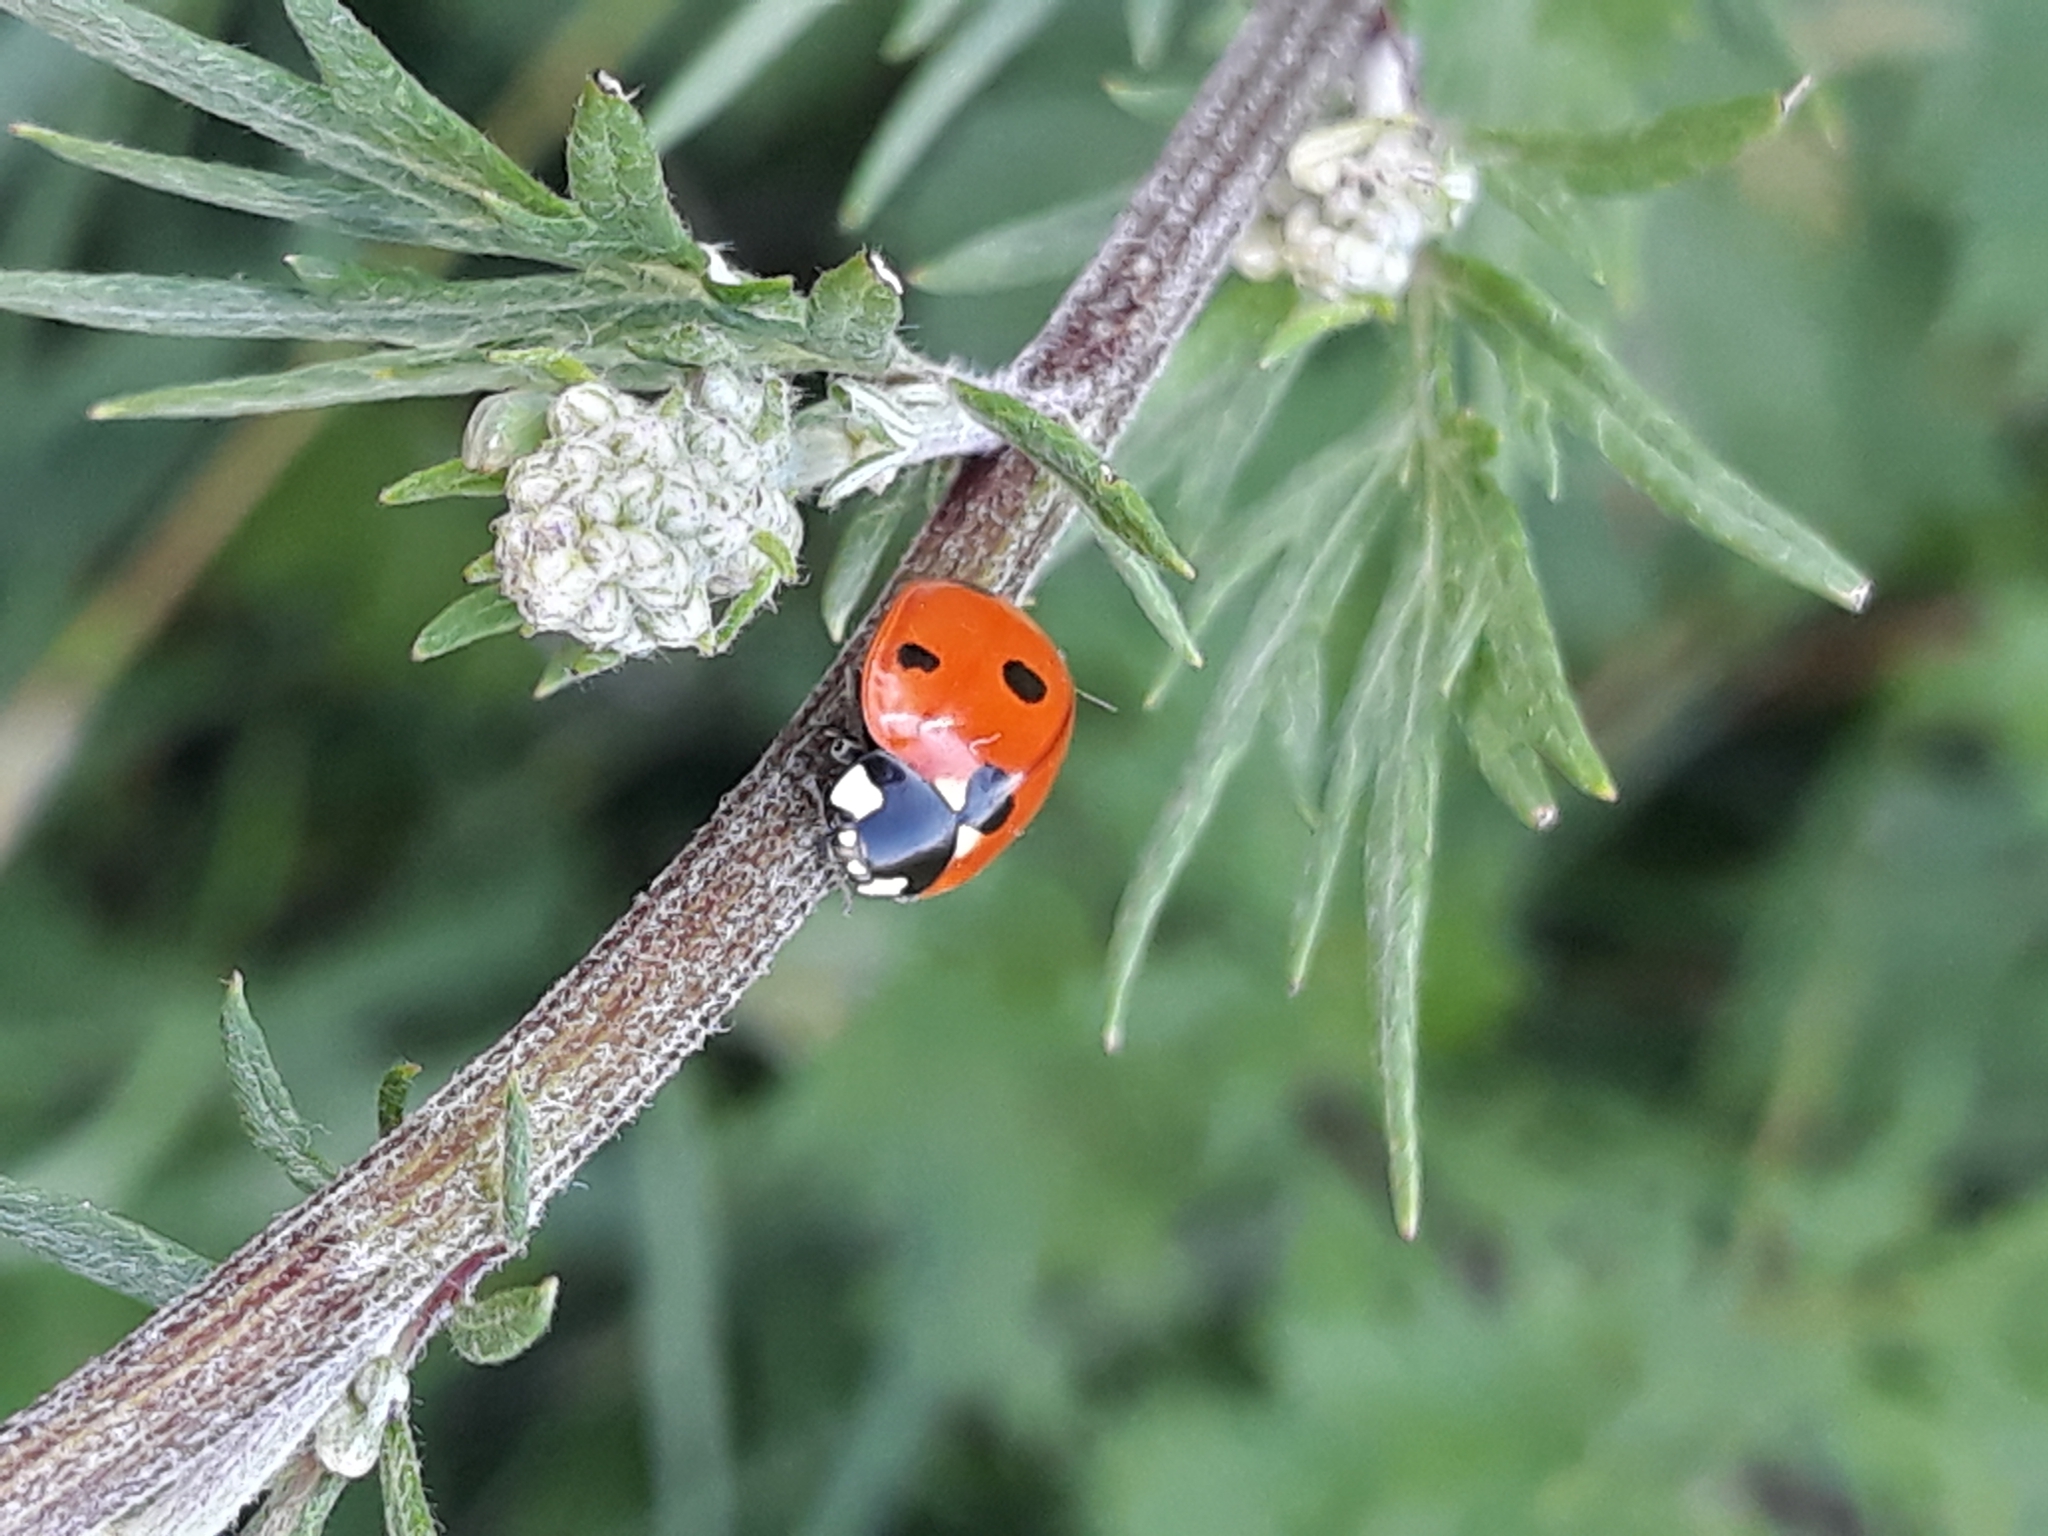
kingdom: Animalia
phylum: Arthropoda
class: Insecta
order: Coleoptera
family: Coccinellidae
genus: Coccinella
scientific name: Coccinella septempunctata
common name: Sevenspotted lady beetle
